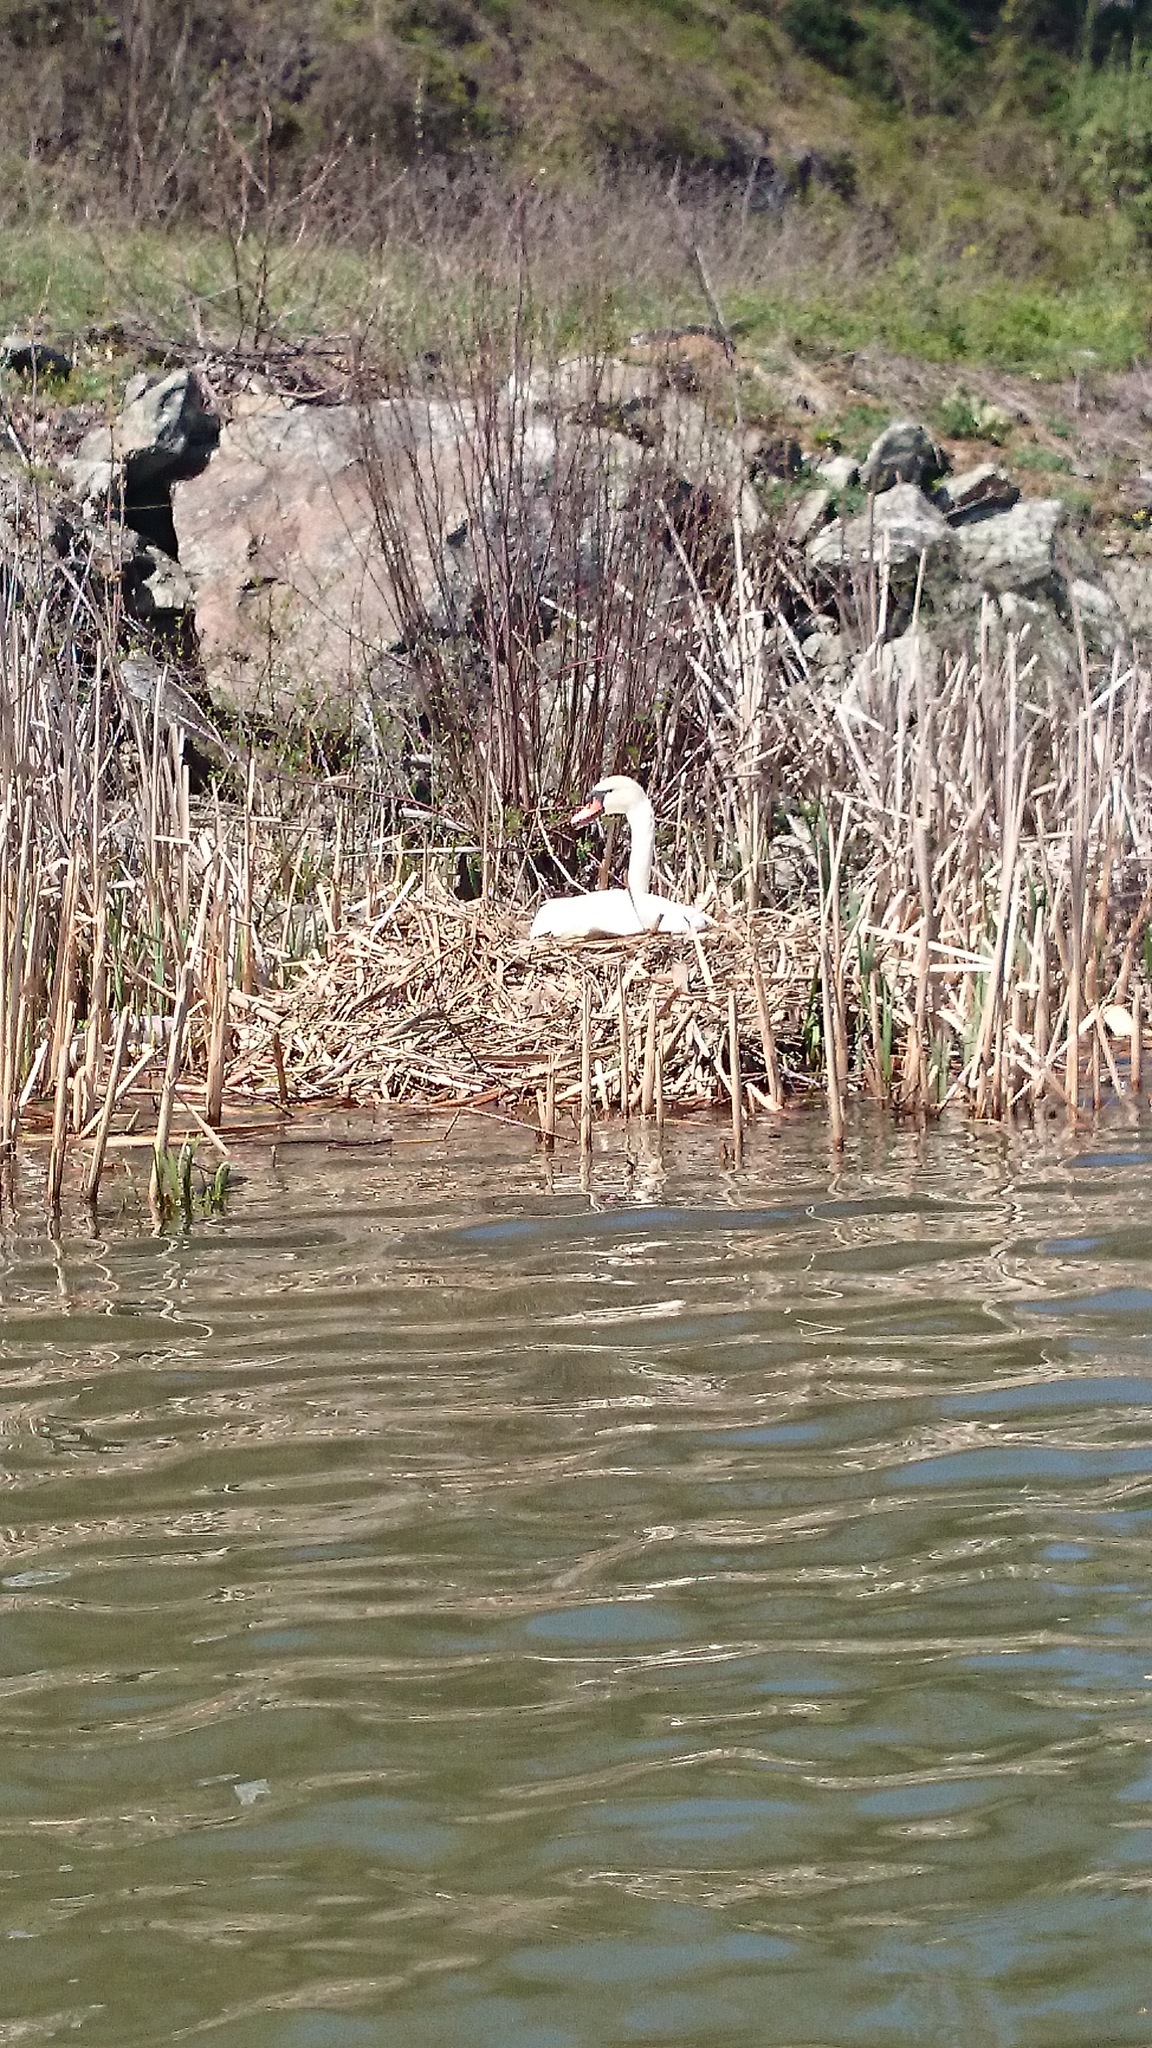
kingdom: Animalia
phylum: Chordata
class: Aves
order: Anseriformes
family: Anatidae
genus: Cygnus
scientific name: Cygnus olor
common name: Mute swan
